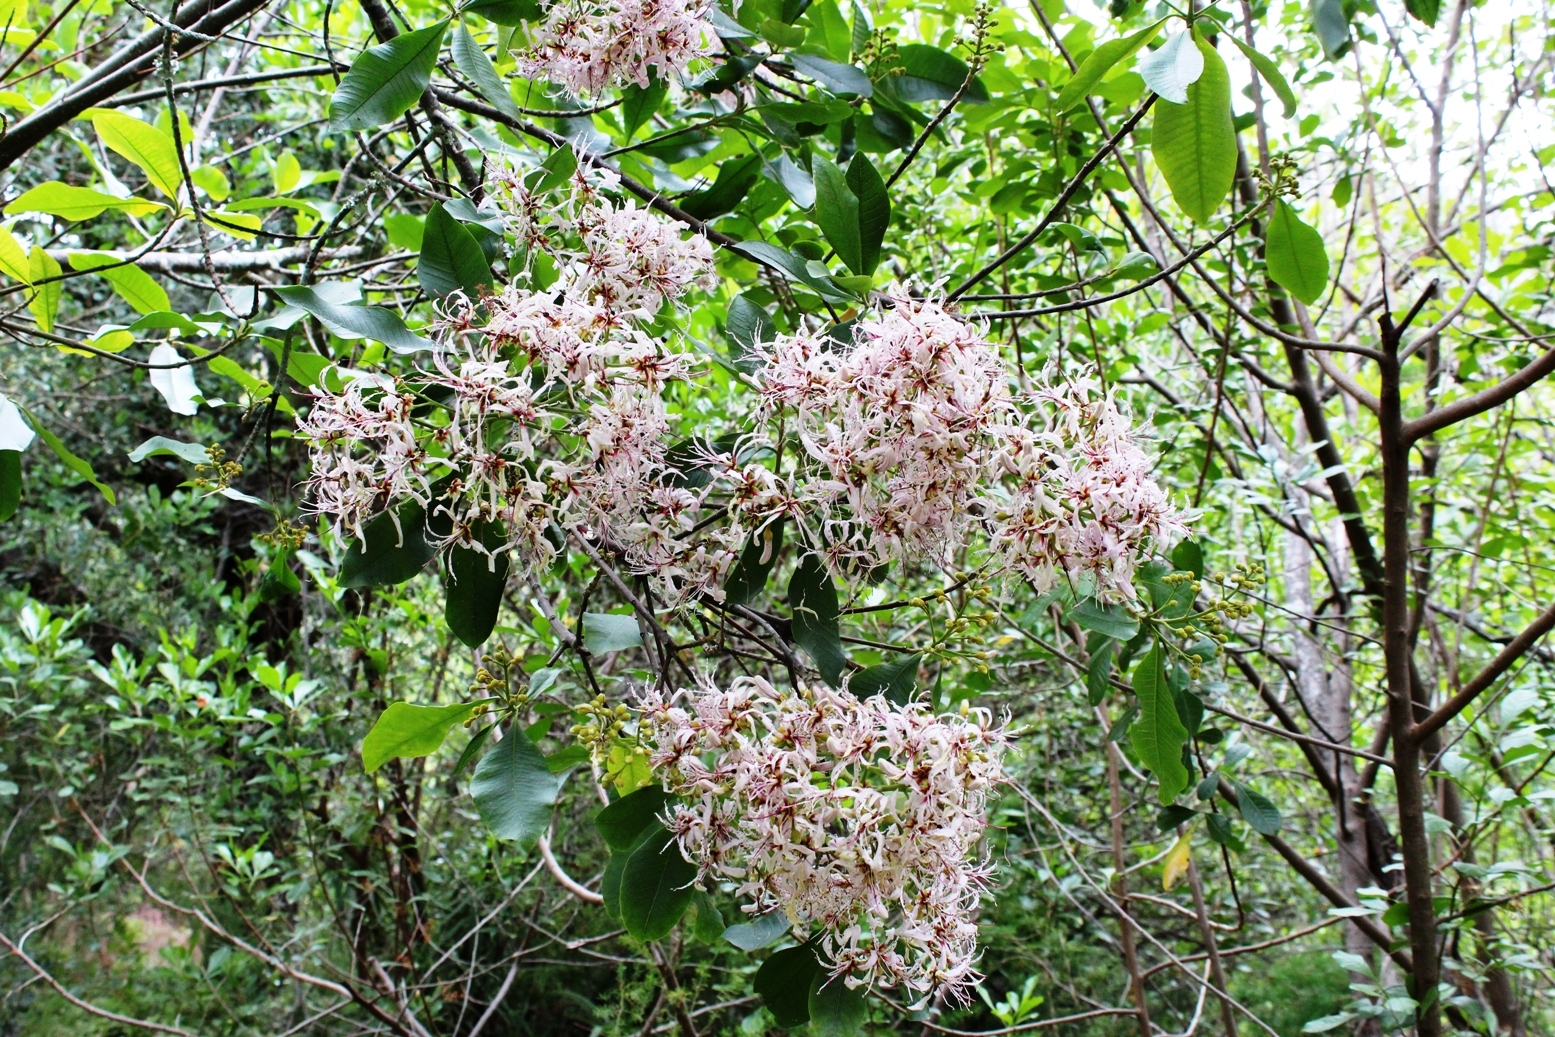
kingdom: Plantae
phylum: Tracheophyta
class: Magnoliopsida
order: Sapindales
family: Rutaceae
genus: Calodendrum
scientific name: Calodendrum capense
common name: Cape chestnut
